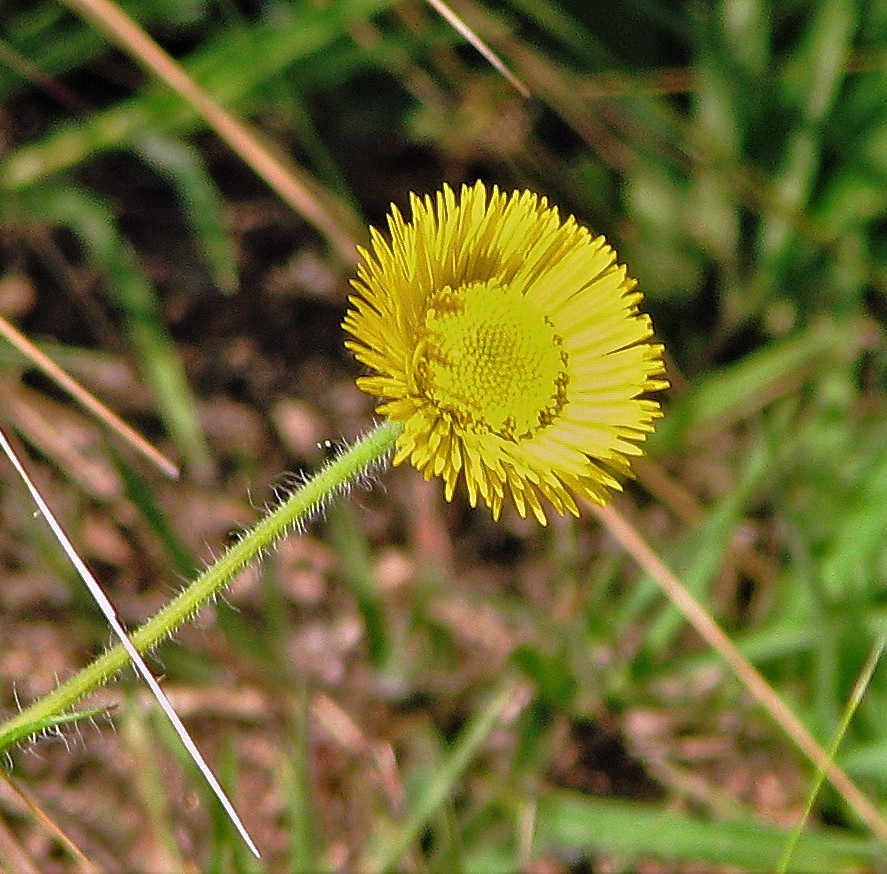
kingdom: Plantae
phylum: Tracheophyta
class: Magnoliopsida
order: Asterales
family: Asteraceae
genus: Hysterionica
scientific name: Hysterionica jasionoides
